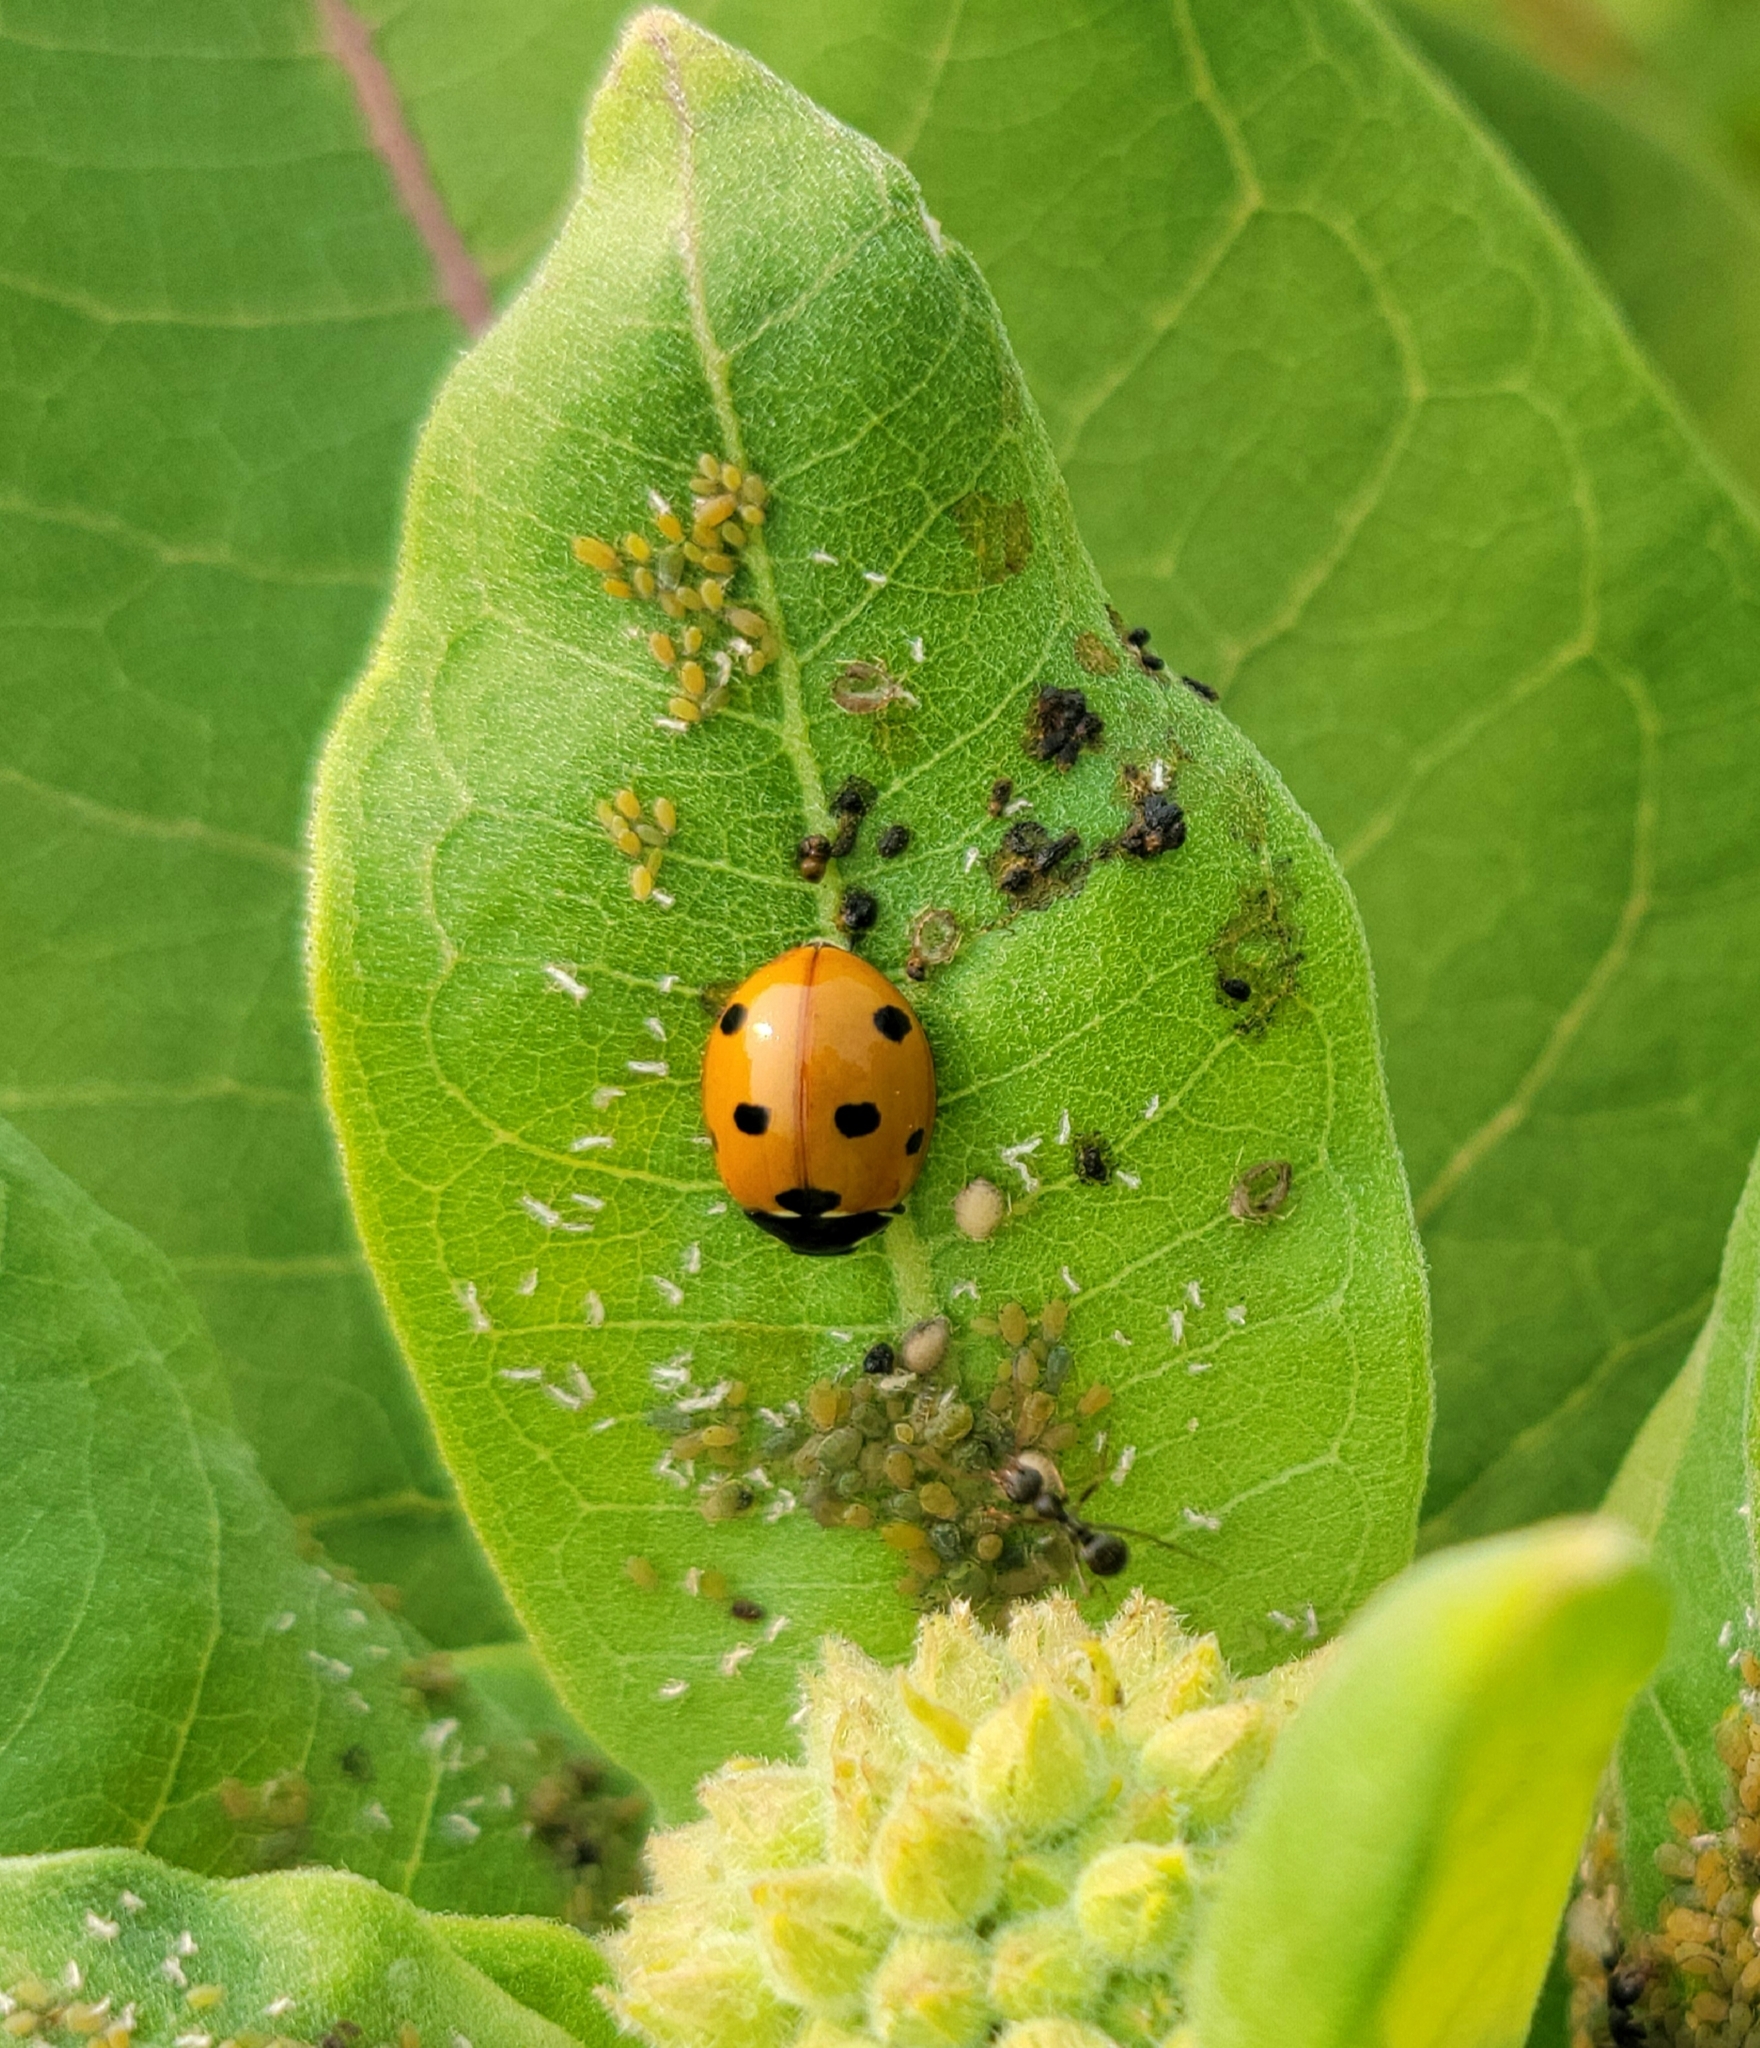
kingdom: Animalia
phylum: Arthropoda
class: Insecta
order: Coleoptera
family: Coccinellidae
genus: Coccinella
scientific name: Coccinella septempunctata
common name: Sevenspotted lady beetle
